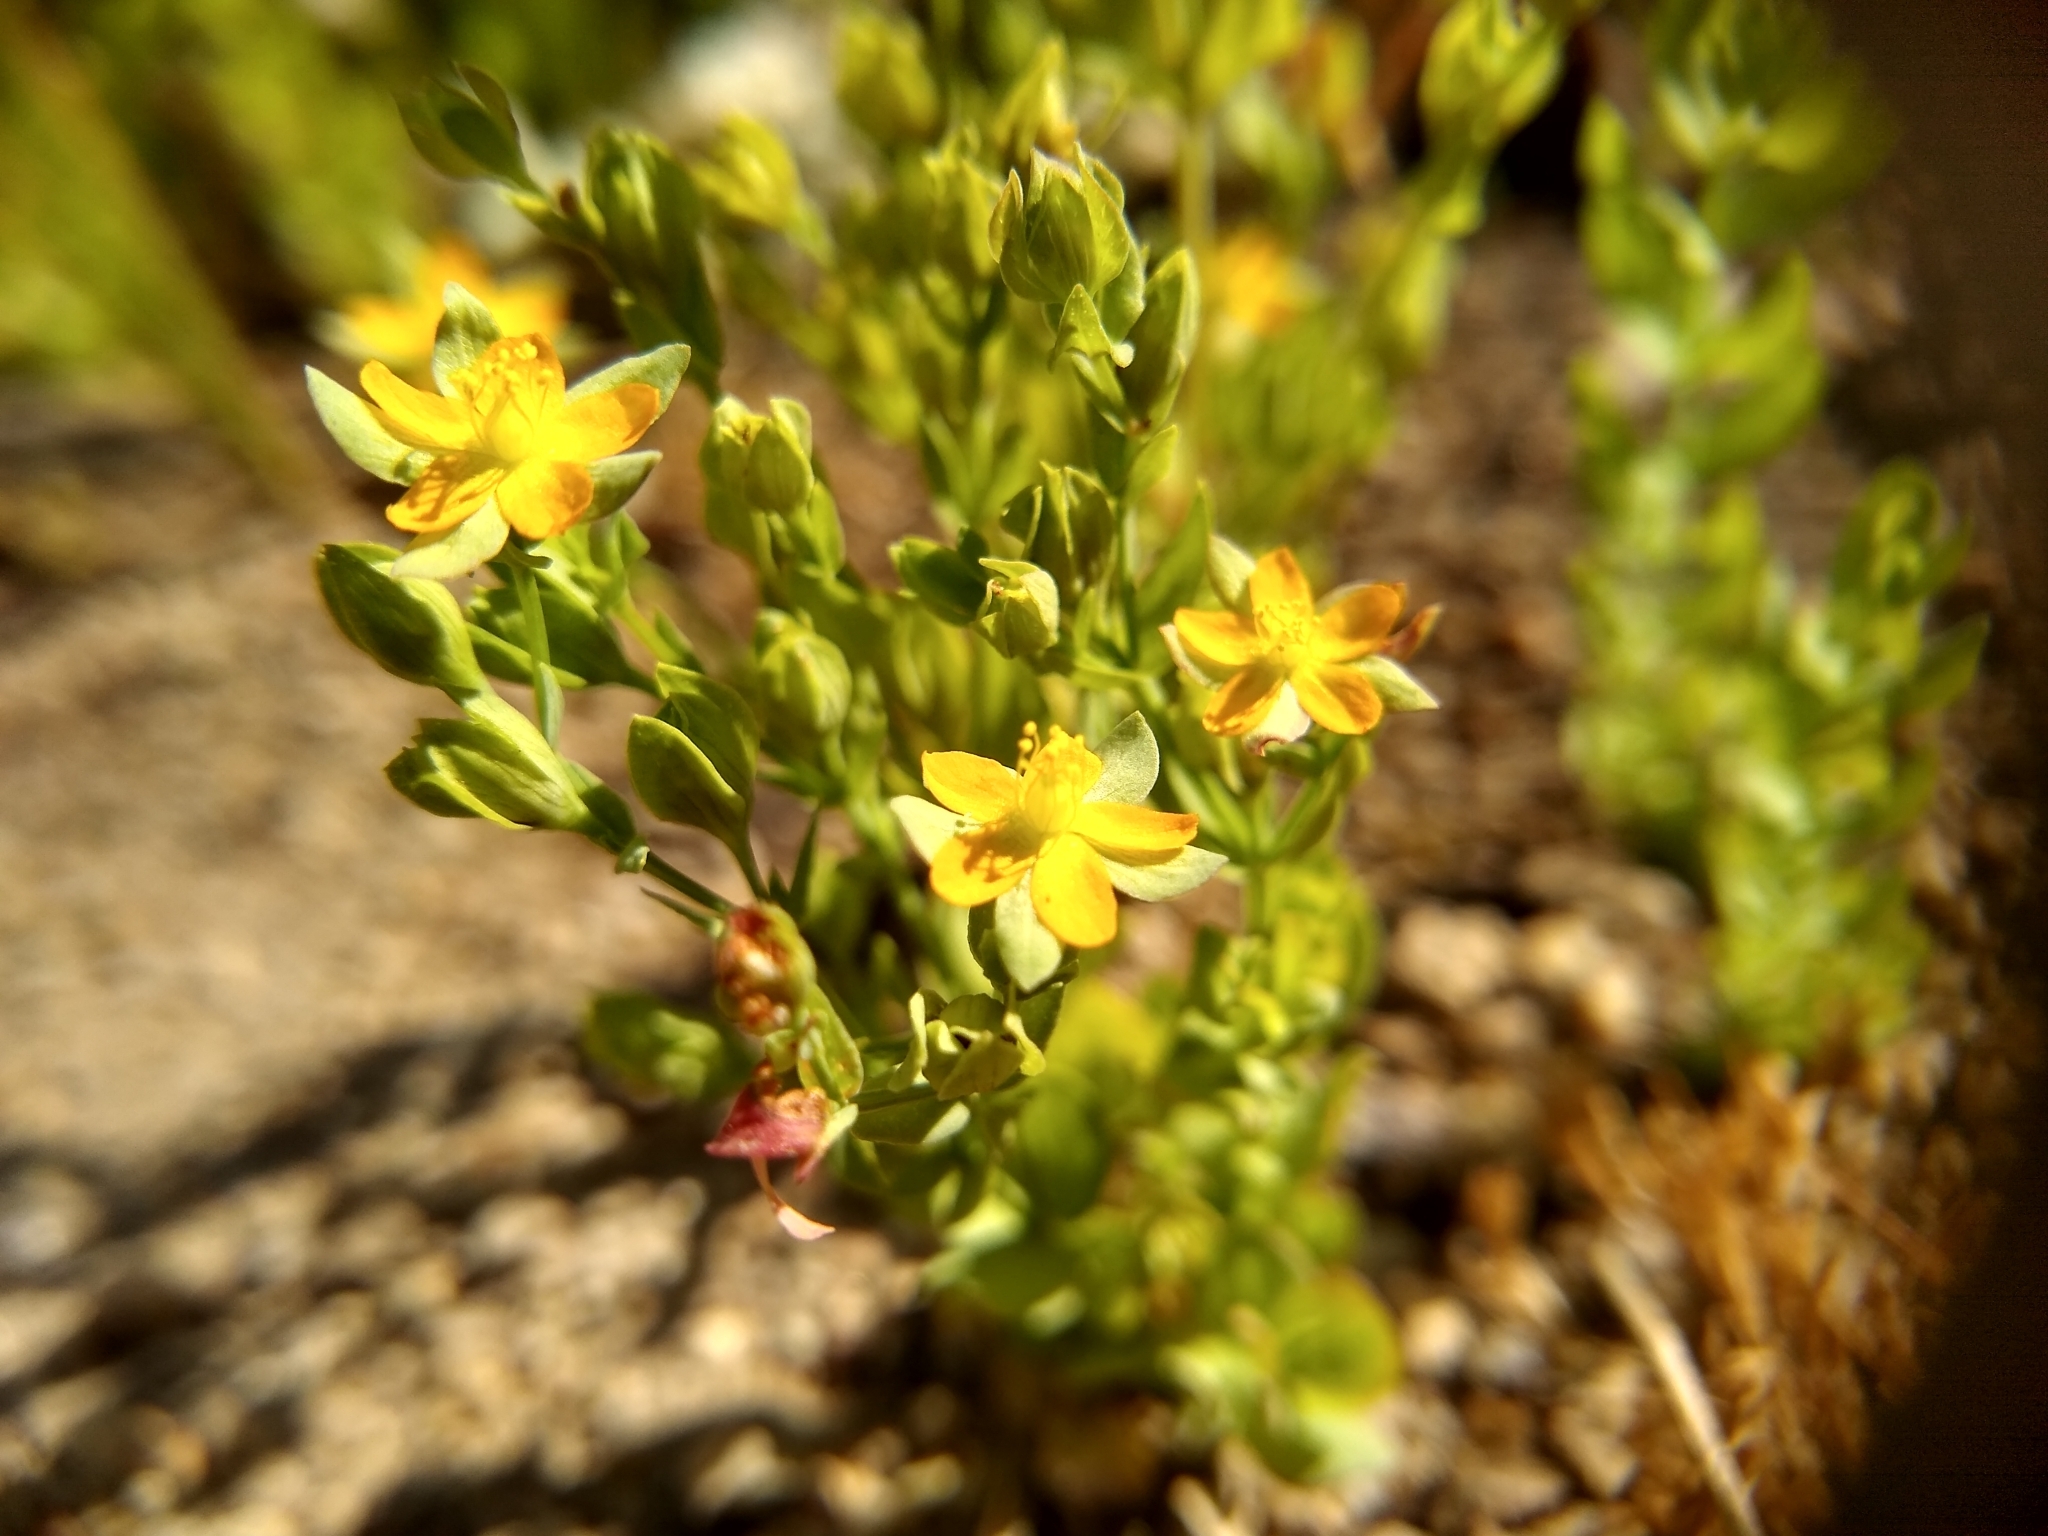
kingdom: Plantae
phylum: Tracheophyta
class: Magnoliopsida
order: Malpighiales
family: Hypericaceae
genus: Hypericum
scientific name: Hypericum anagalloides
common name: Bog st. john's-wort
